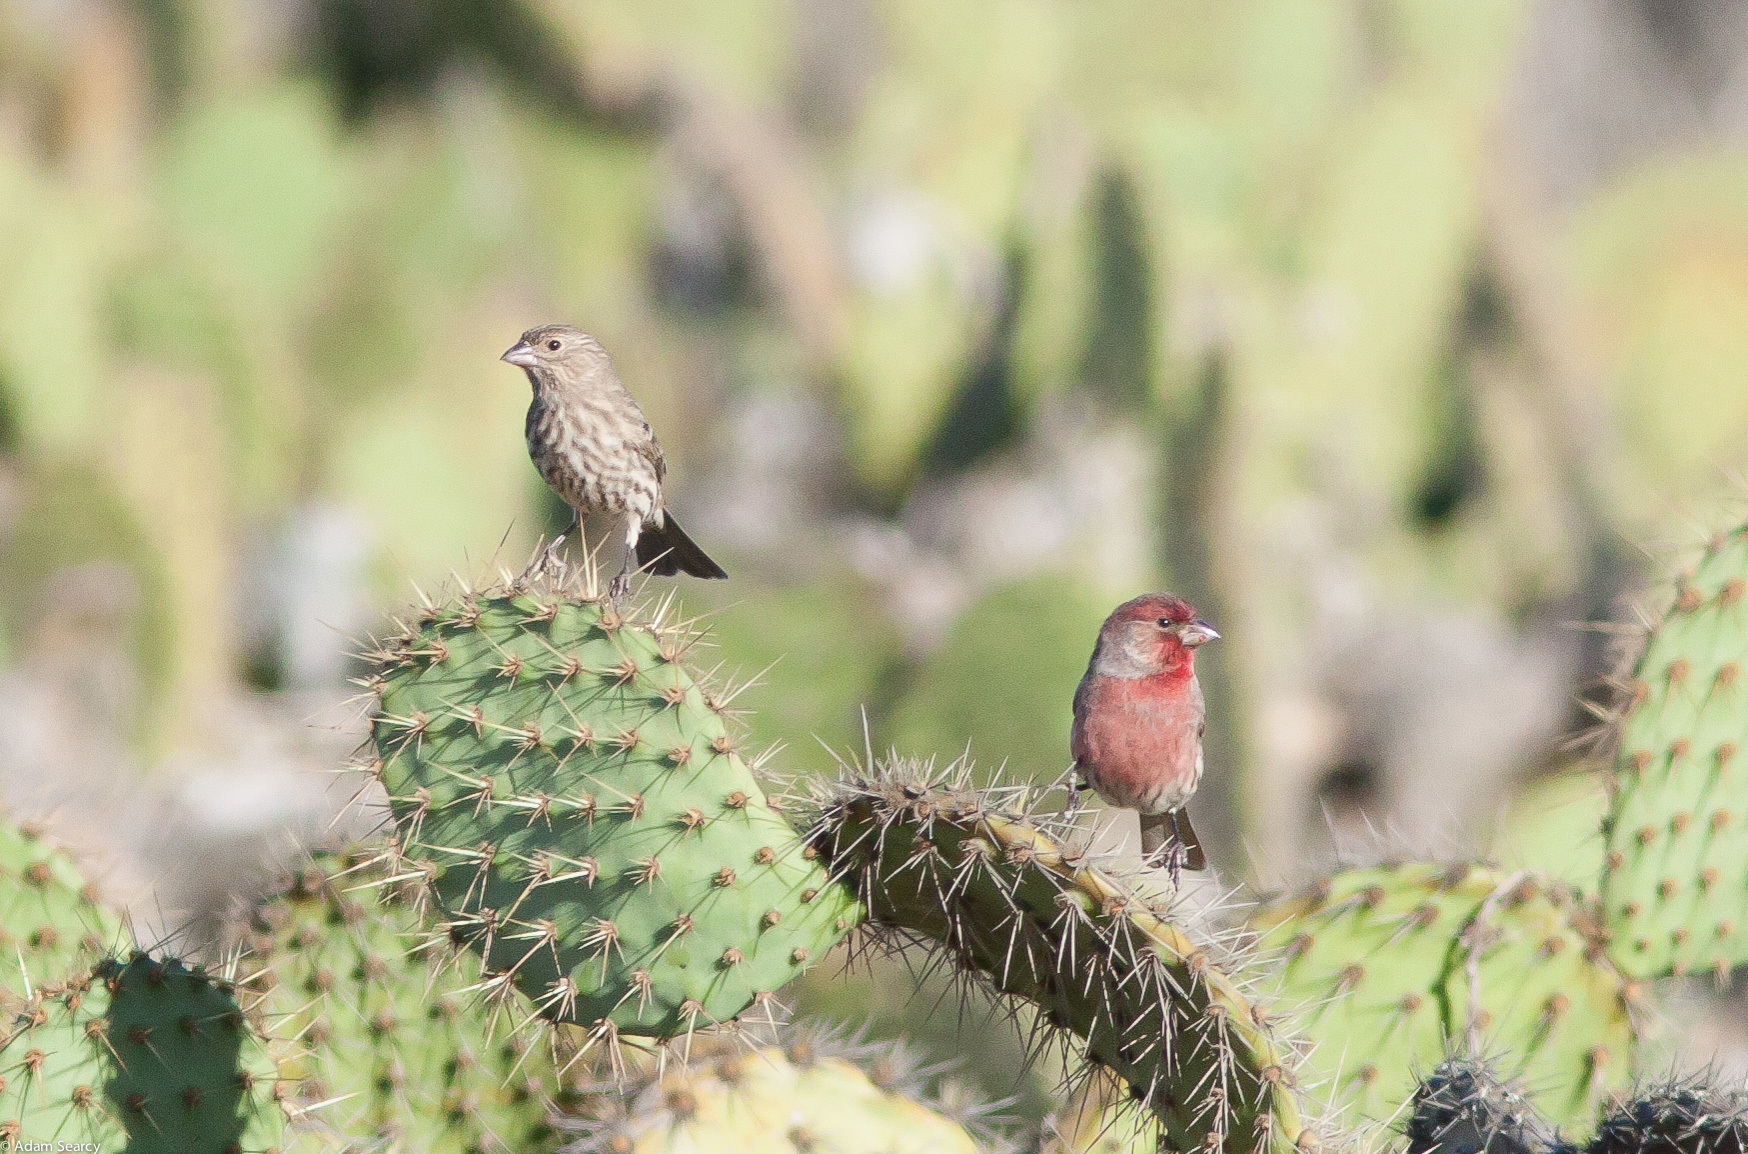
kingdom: Animalia
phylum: Chordata
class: Aves
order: Passeriformes
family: Fringillidae
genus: Haemorhous
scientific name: Haemorhous mexicanus
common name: House finch
